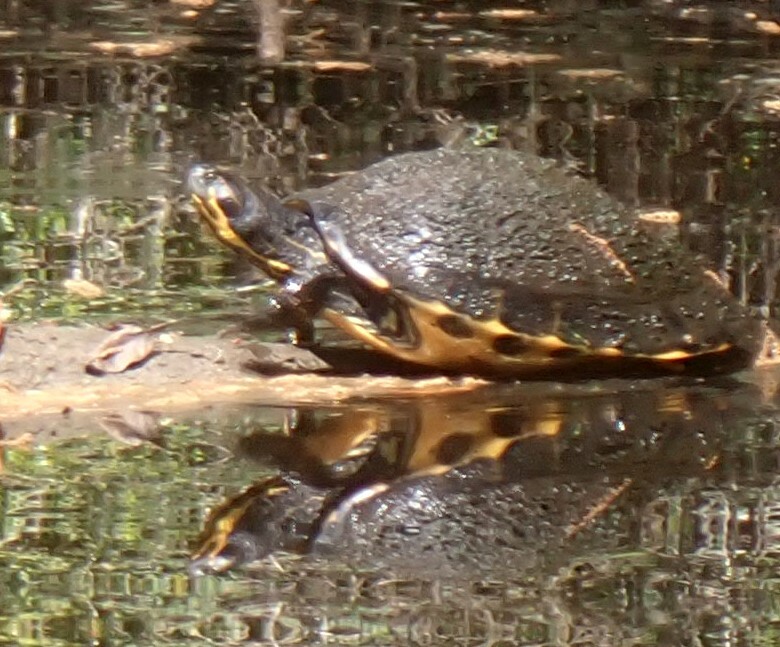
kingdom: Animalia
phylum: Chordata
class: Testudines
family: Emydidae
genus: Pseudemys
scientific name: Pseudemys concinna
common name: Eastern river cooter
